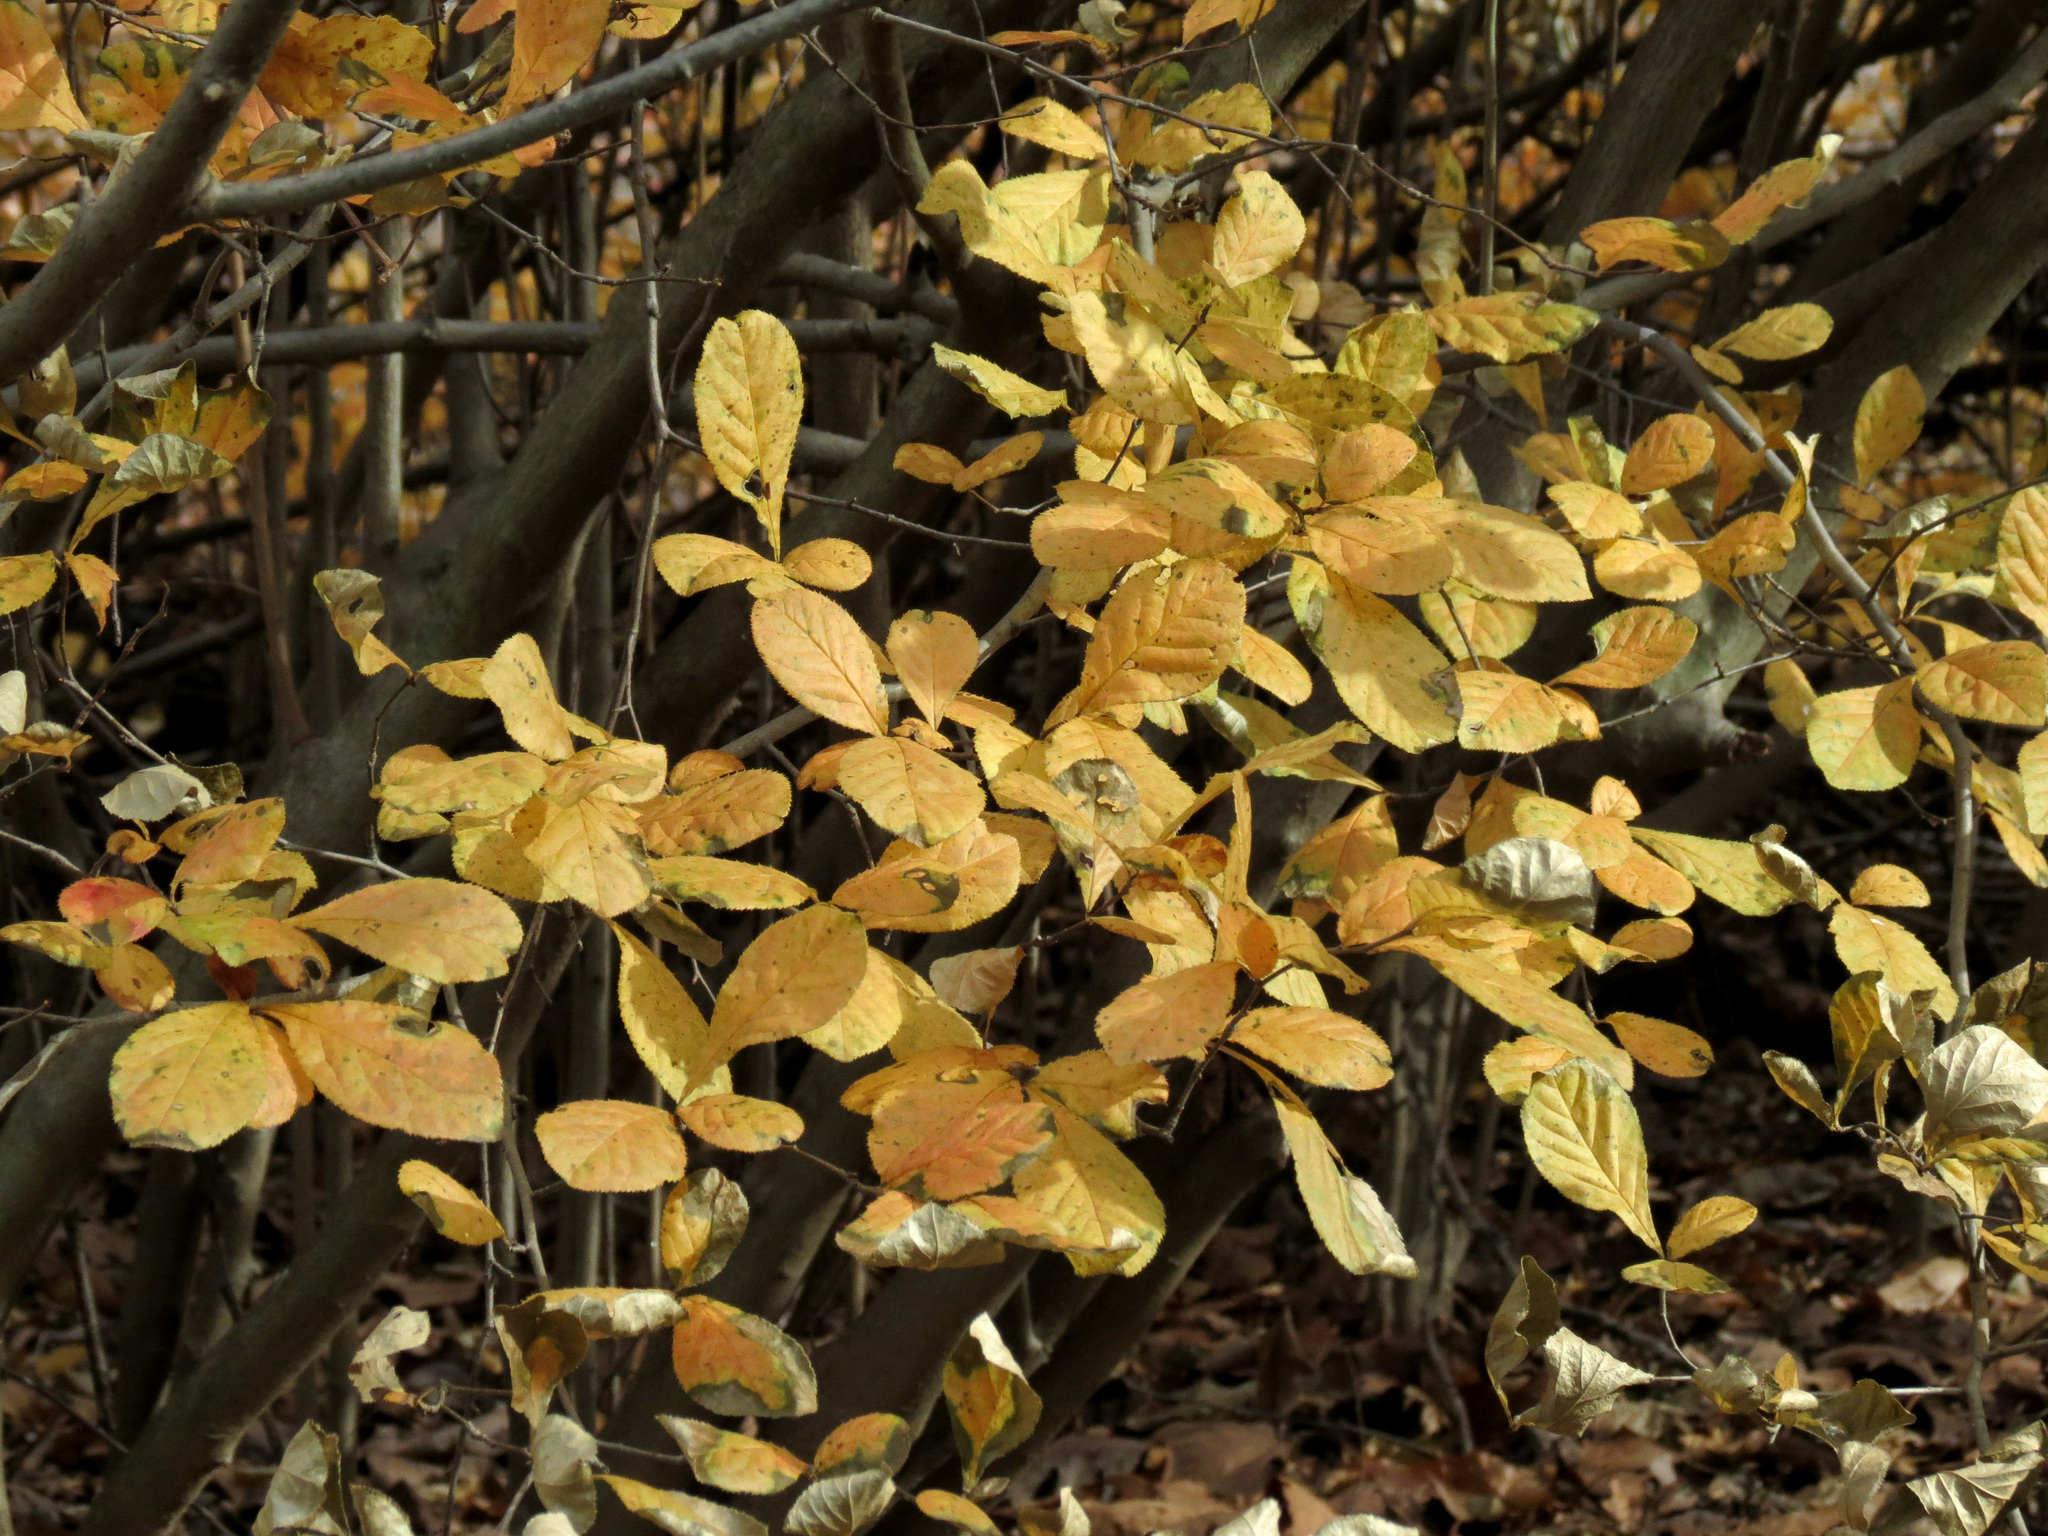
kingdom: Plantae
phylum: Tracheophyta
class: Magnoliopsida
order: Rosales
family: Rosaceae
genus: Pourthiaea
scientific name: Pourthiaea villosa
